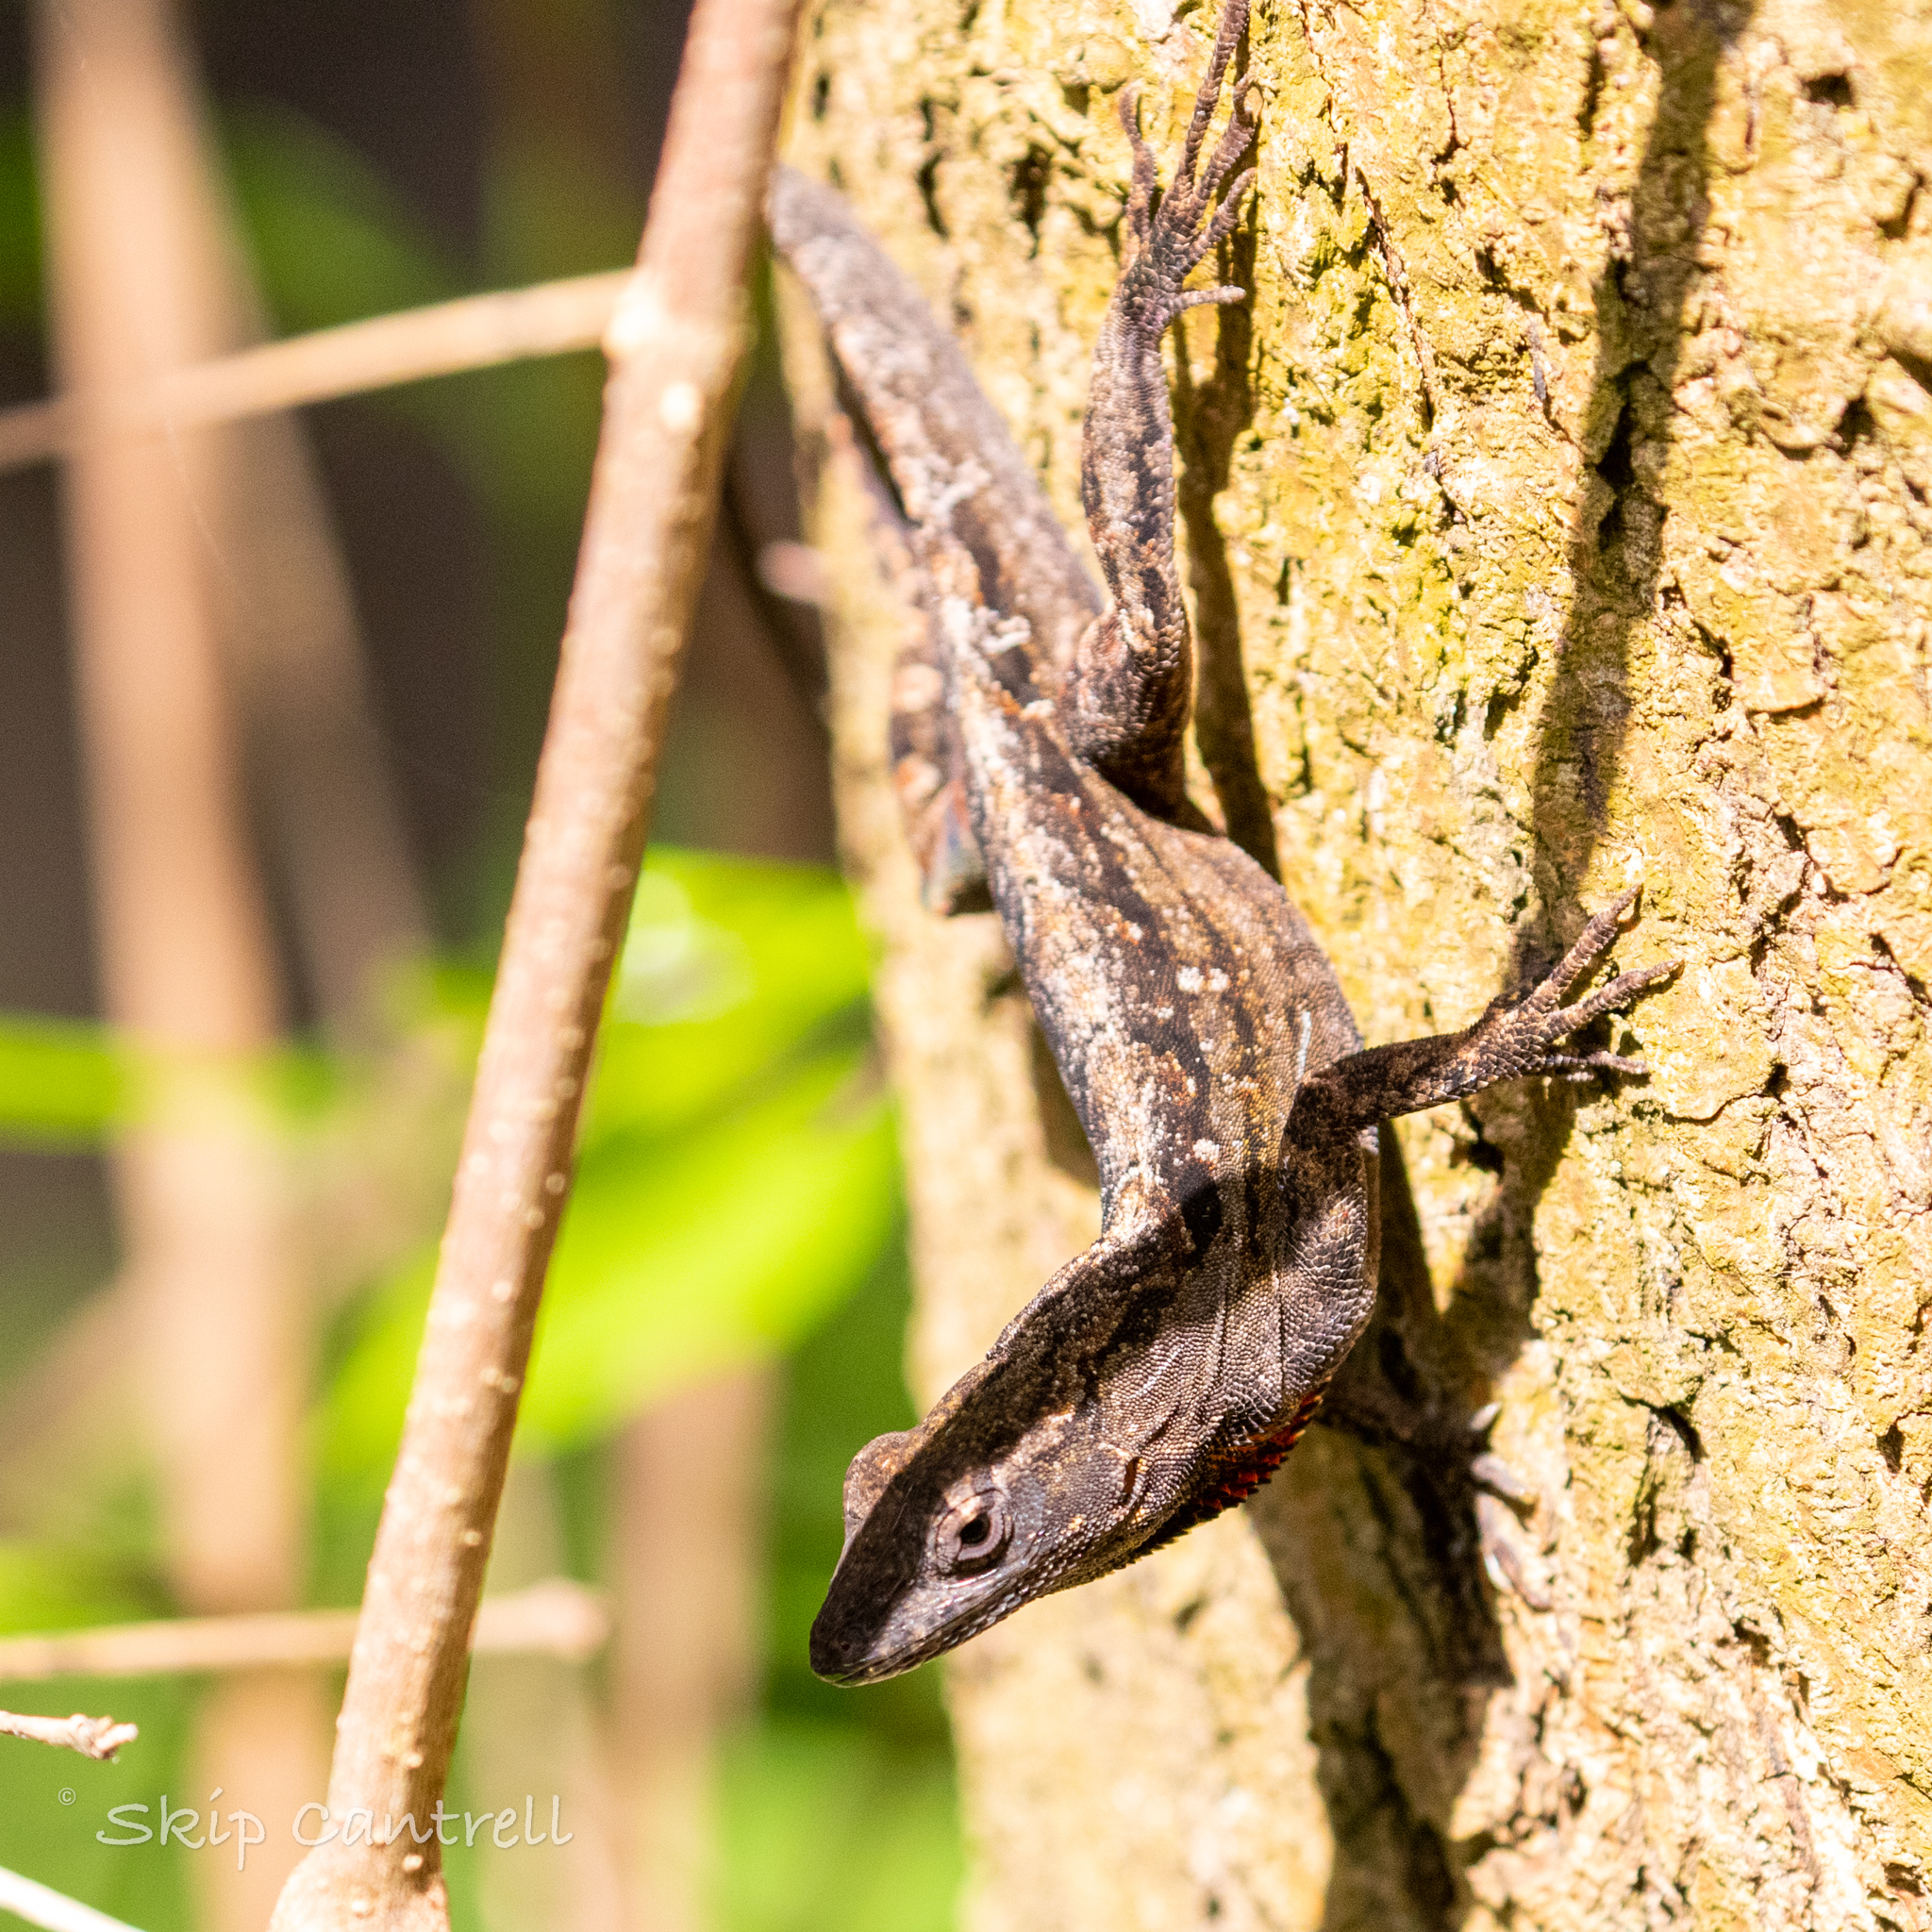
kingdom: Animalia
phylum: Chordata
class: Squamata
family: Dactyloidae
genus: Anolis
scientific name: Anolis sagrei
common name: Brown anole
